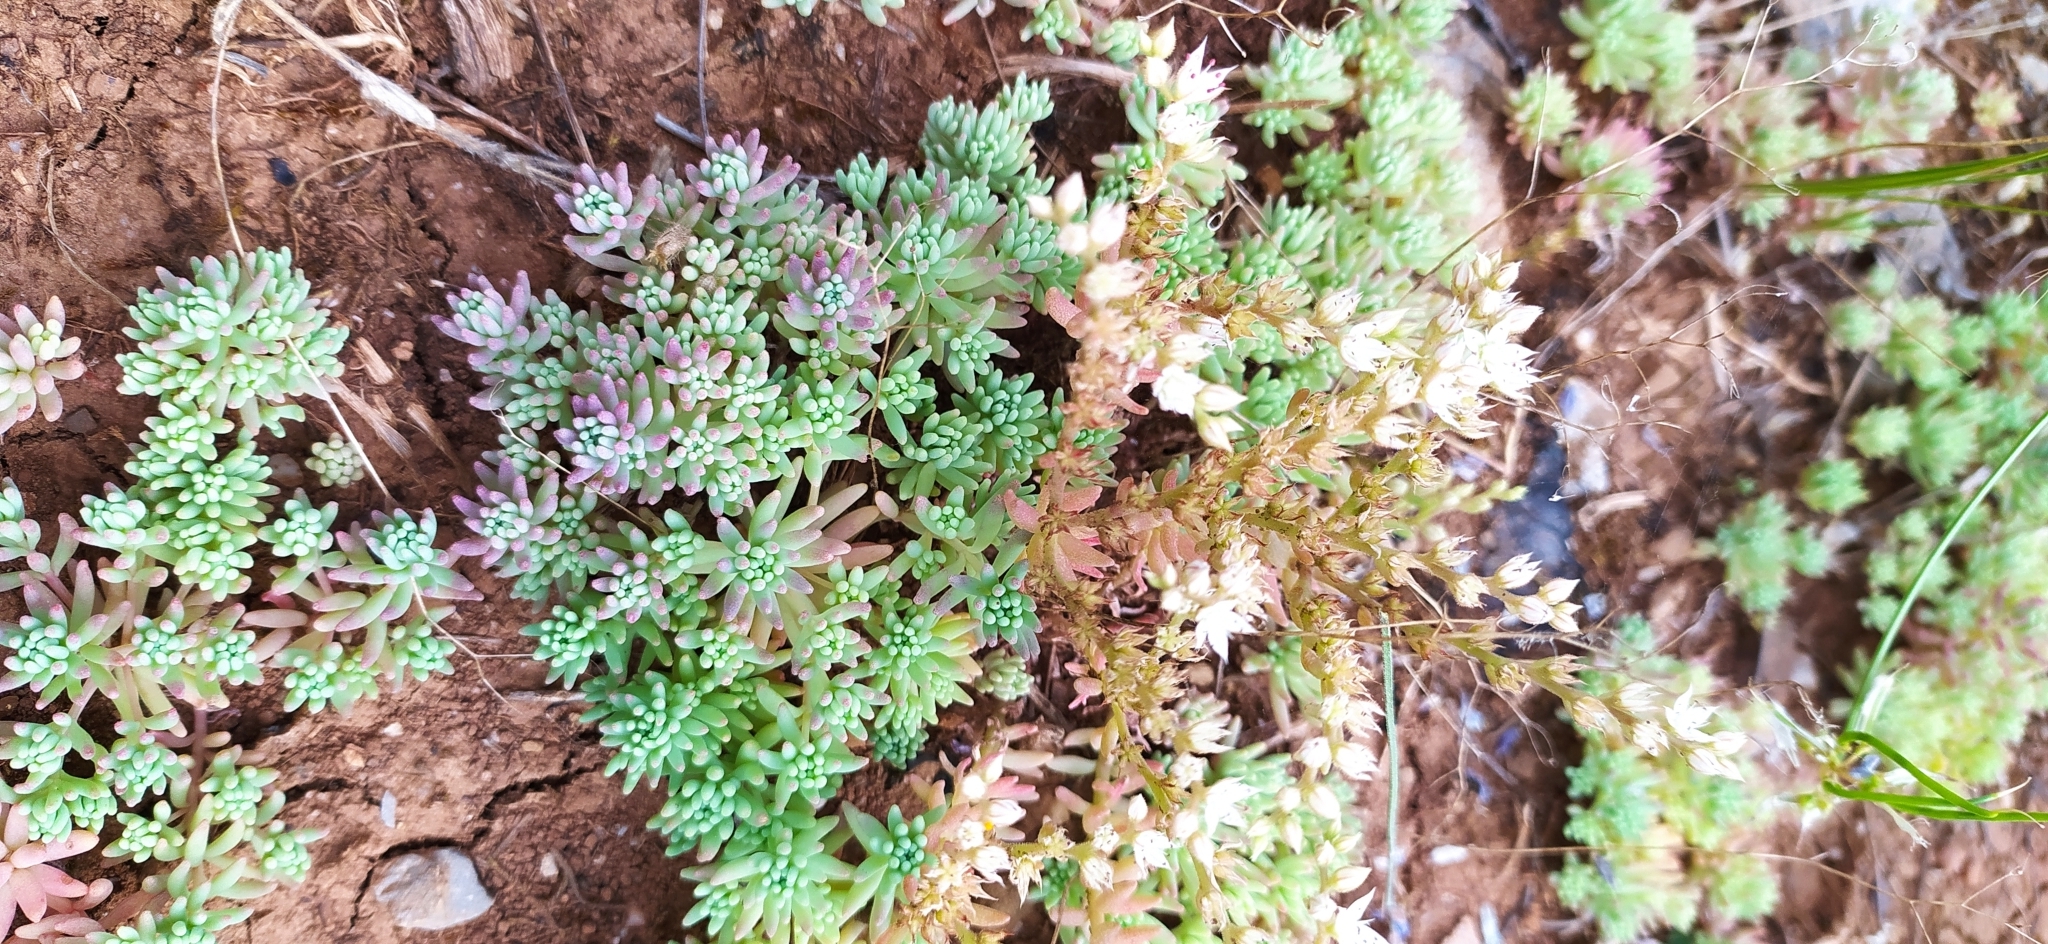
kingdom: Plantae
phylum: Tracheophyta
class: Magnoliopsida
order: Saxifragales
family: Crassulaceae
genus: Sedum
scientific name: Sedum pallidum
